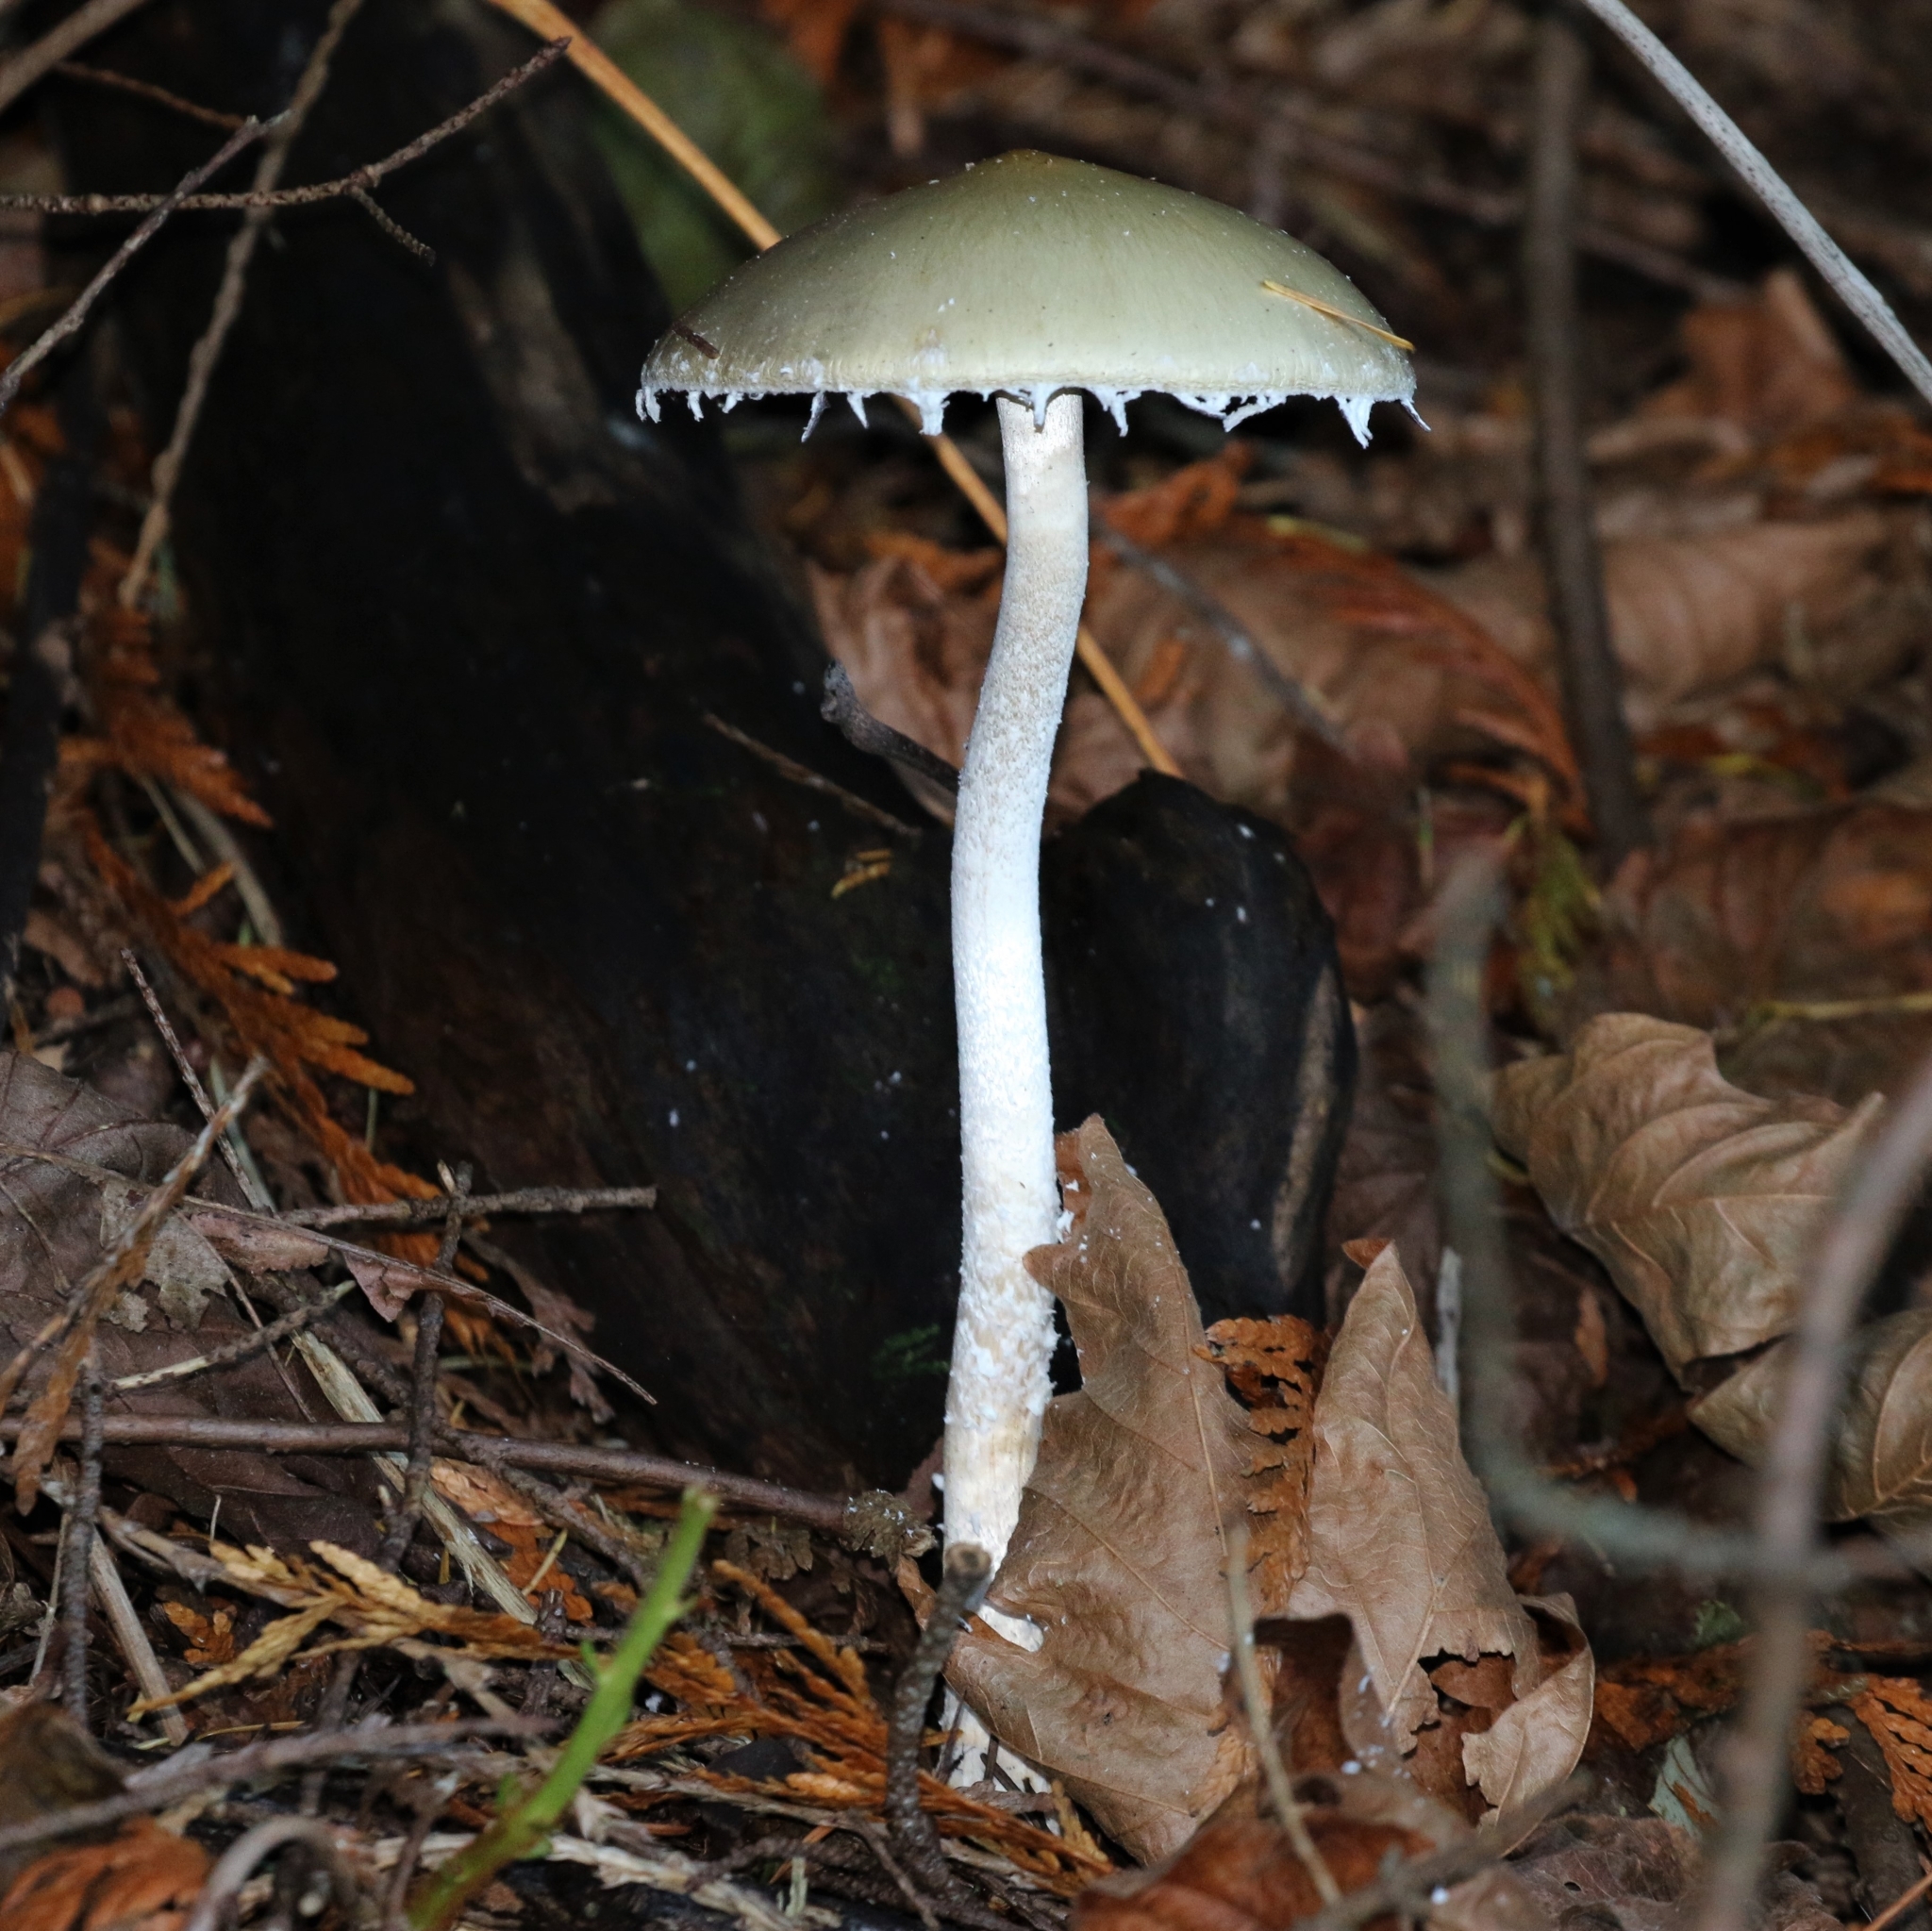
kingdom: Fungi
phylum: Basidiomycota
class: Agaricomycetes
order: Agaricales
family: Strophariaceae
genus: Stropharia
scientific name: Stropharia ambigua
